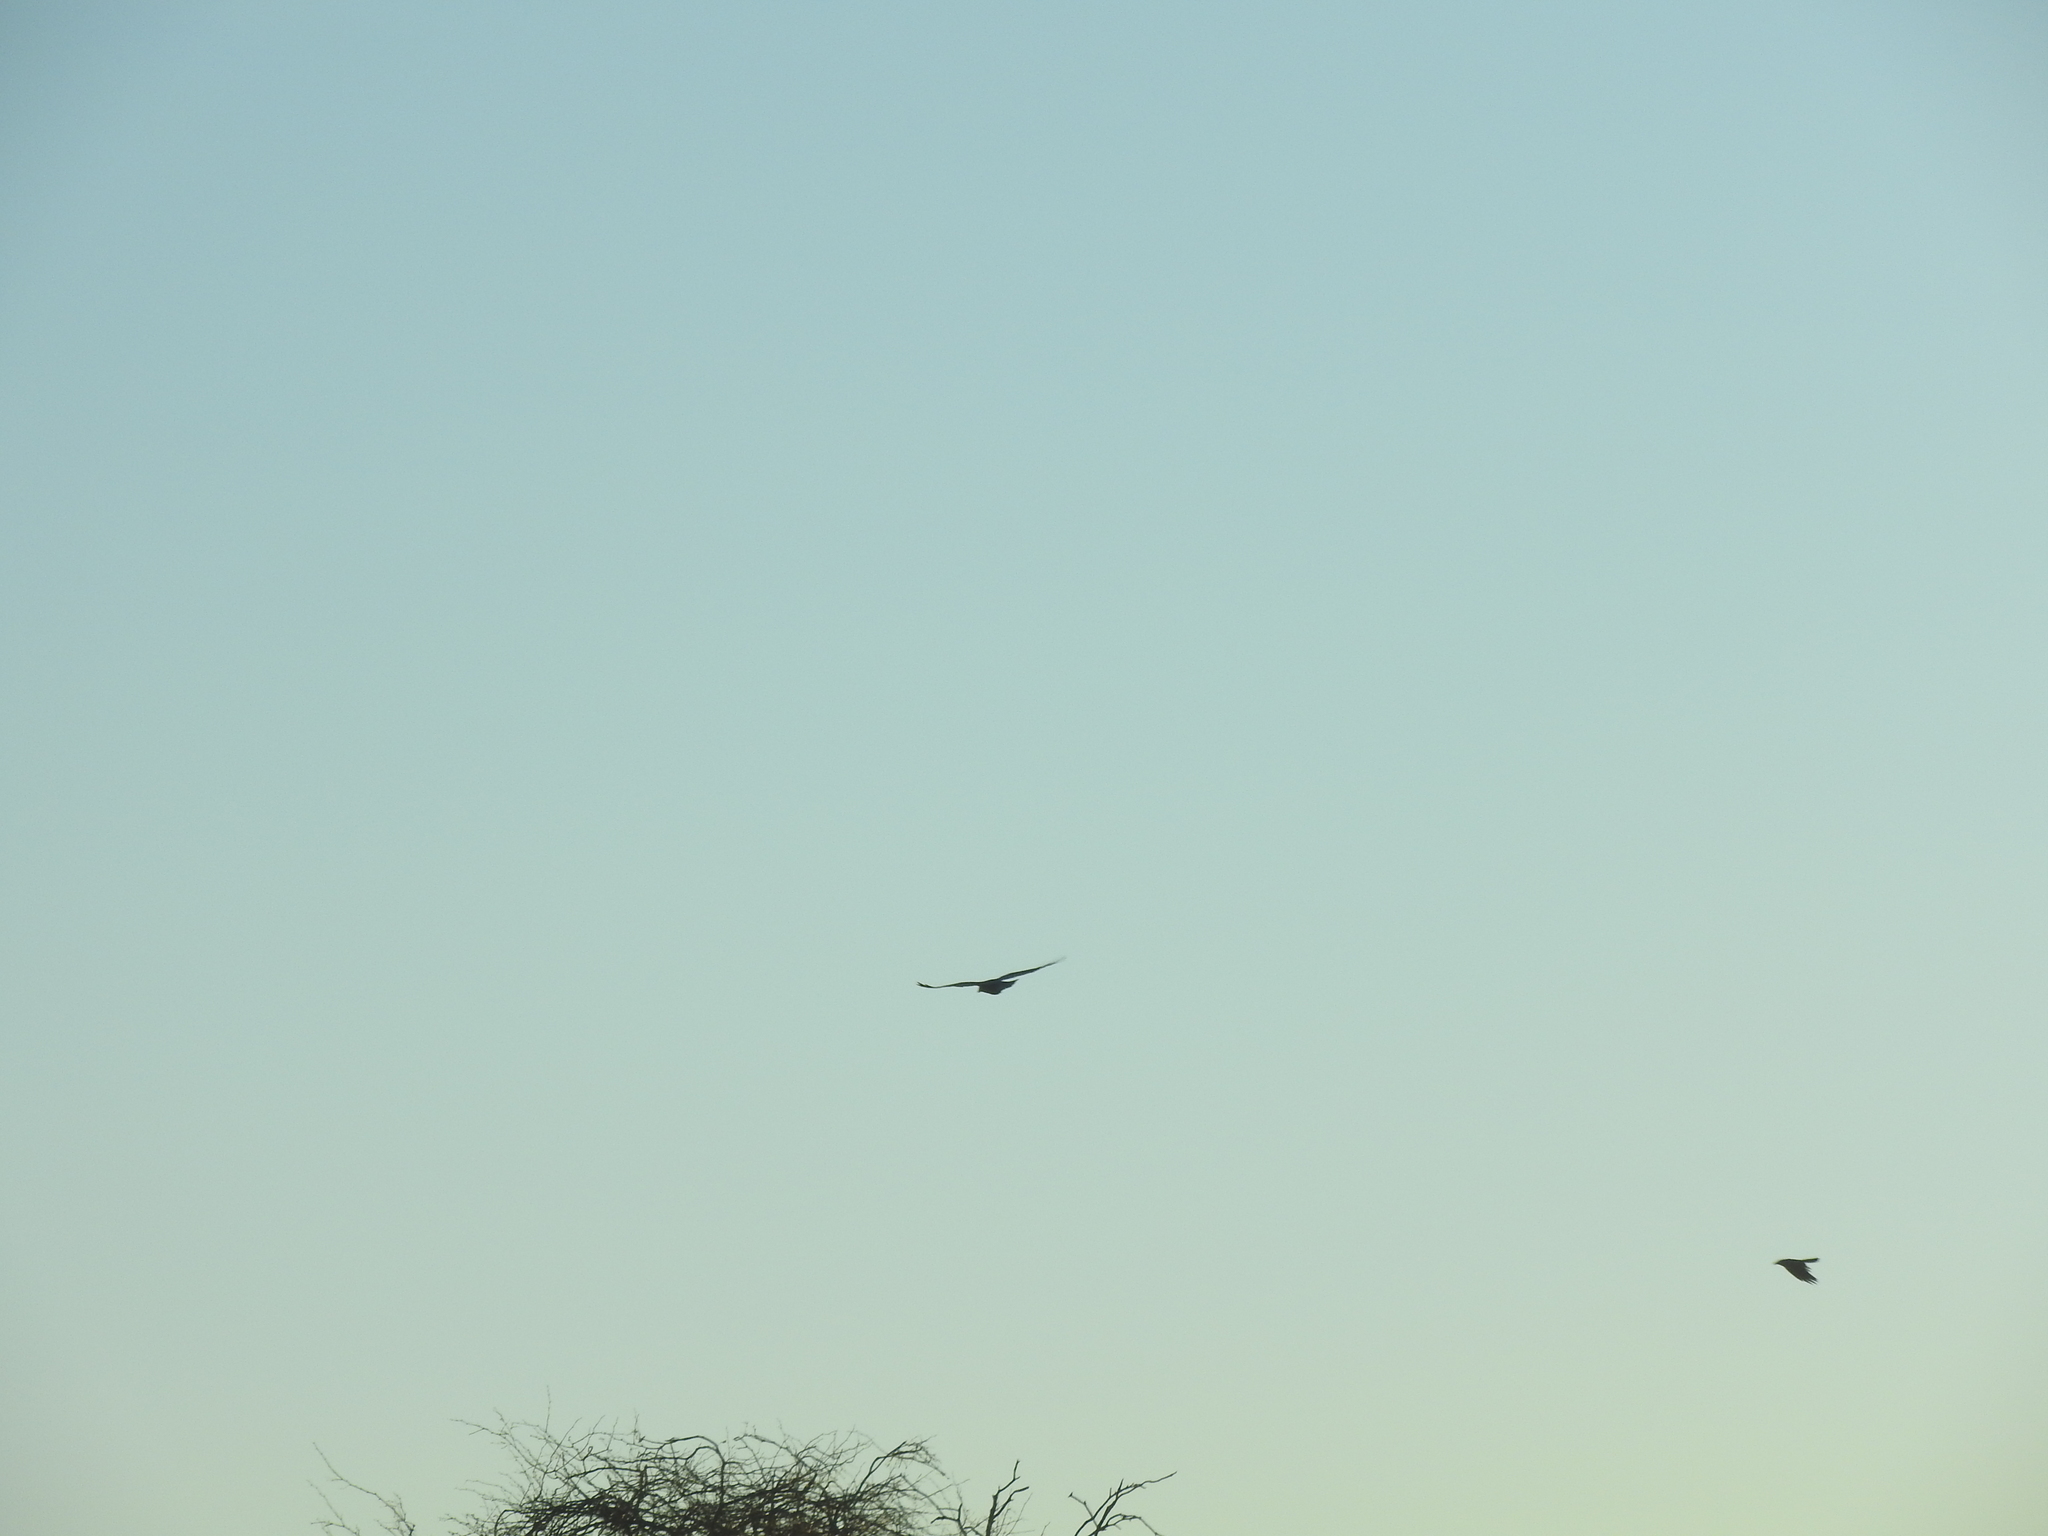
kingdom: Animalia
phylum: Chordata
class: Aves
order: Passeriformes
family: Corvidae
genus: Corvus
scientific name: Corvus corax
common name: Common raven
